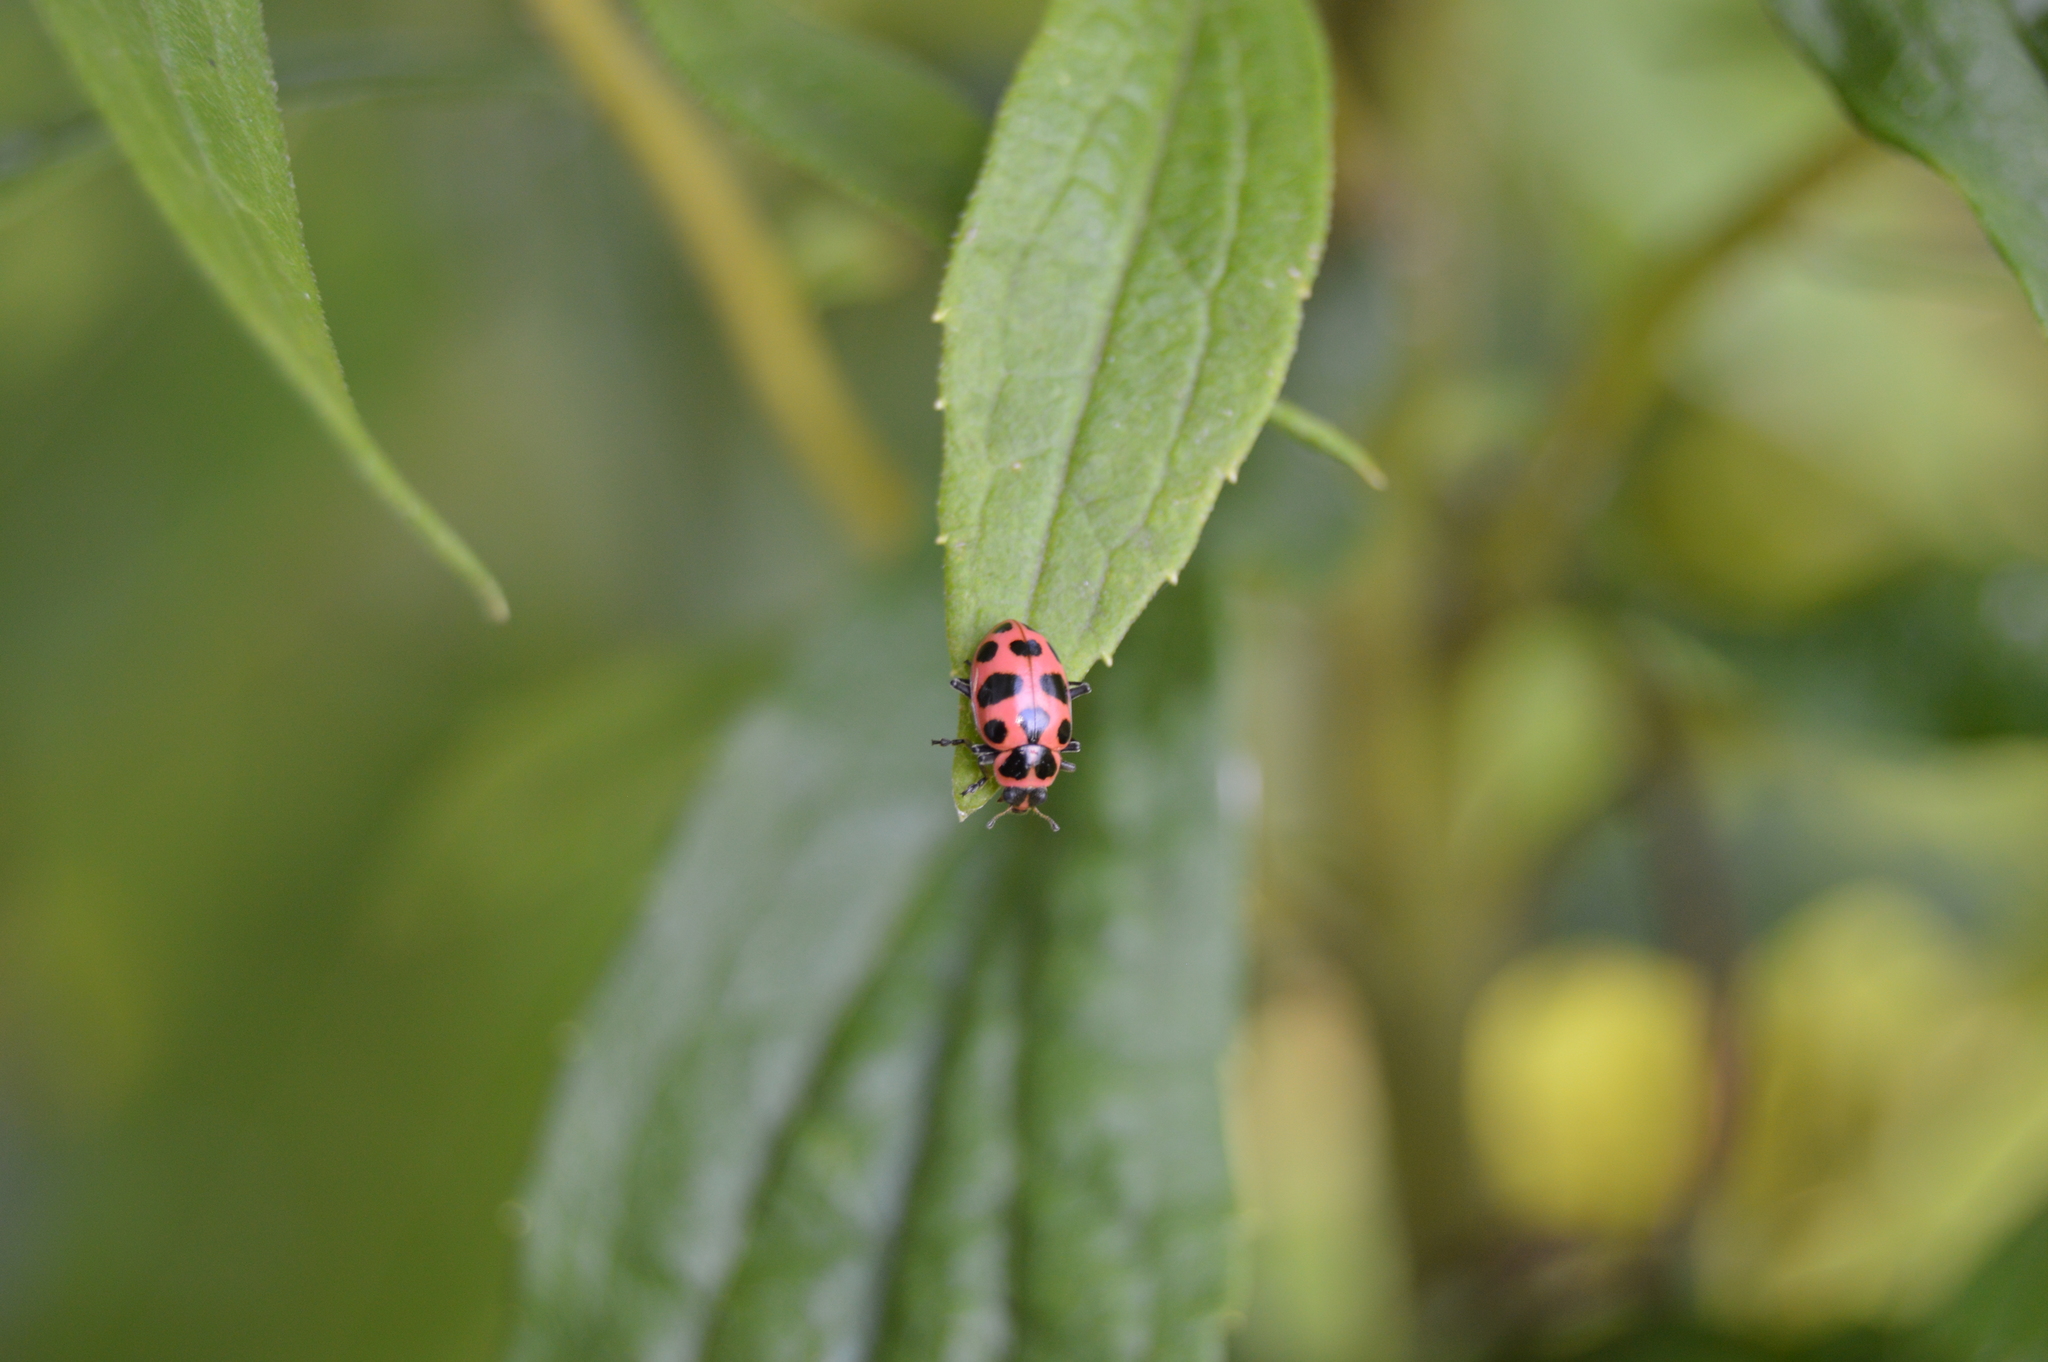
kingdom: Animalia
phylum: Arthropoda
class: Insecta
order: Coleoptera
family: Coccinellidae
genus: Coleomegilla
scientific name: Coleomegilla maculata
